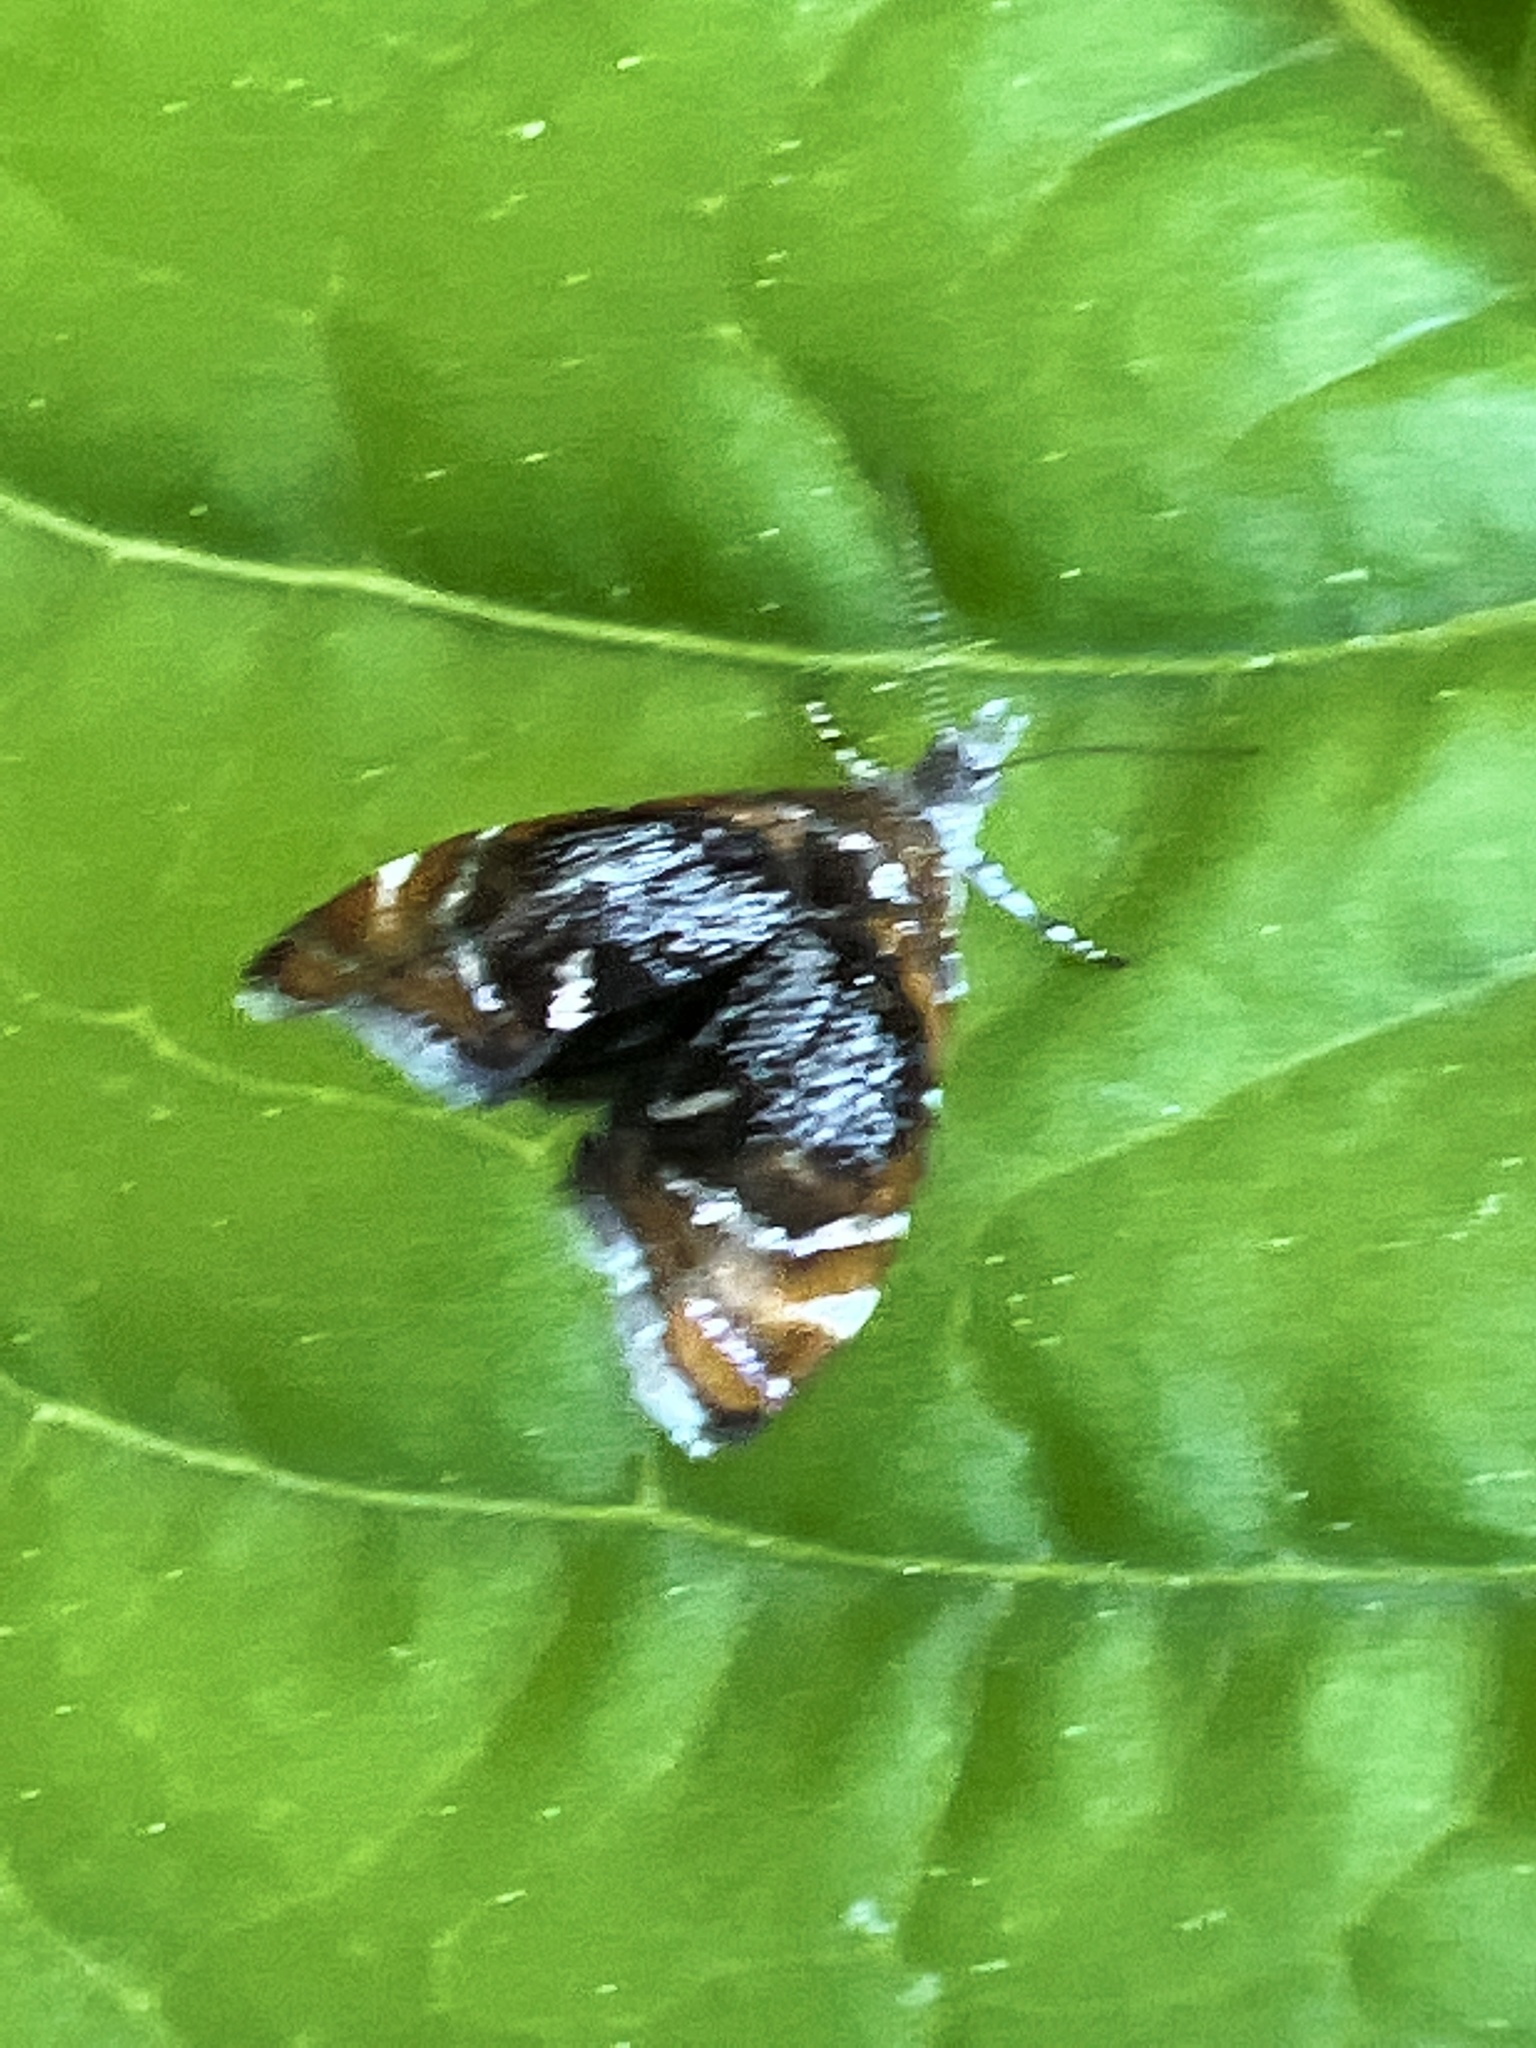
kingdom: Animalia
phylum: Arthropoda
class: Insecta
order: Lepidoptera
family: Choreutidae
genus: Prochoreutis
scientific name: Prochoreutis inflatella
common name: Skullcap skeletonizer moth
